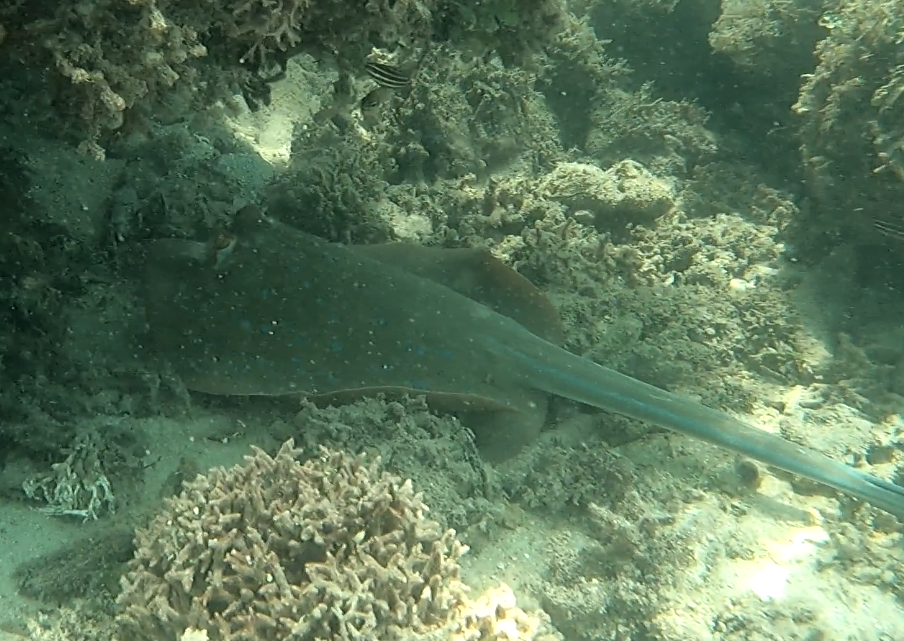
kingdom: Animalia
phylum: Chordata
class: Elasmobranchii
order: Myliobatiformes
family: Dasyatidae
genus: Taeniura
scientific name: Taeniura lymma
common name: Bluespotted ribbontail ray
